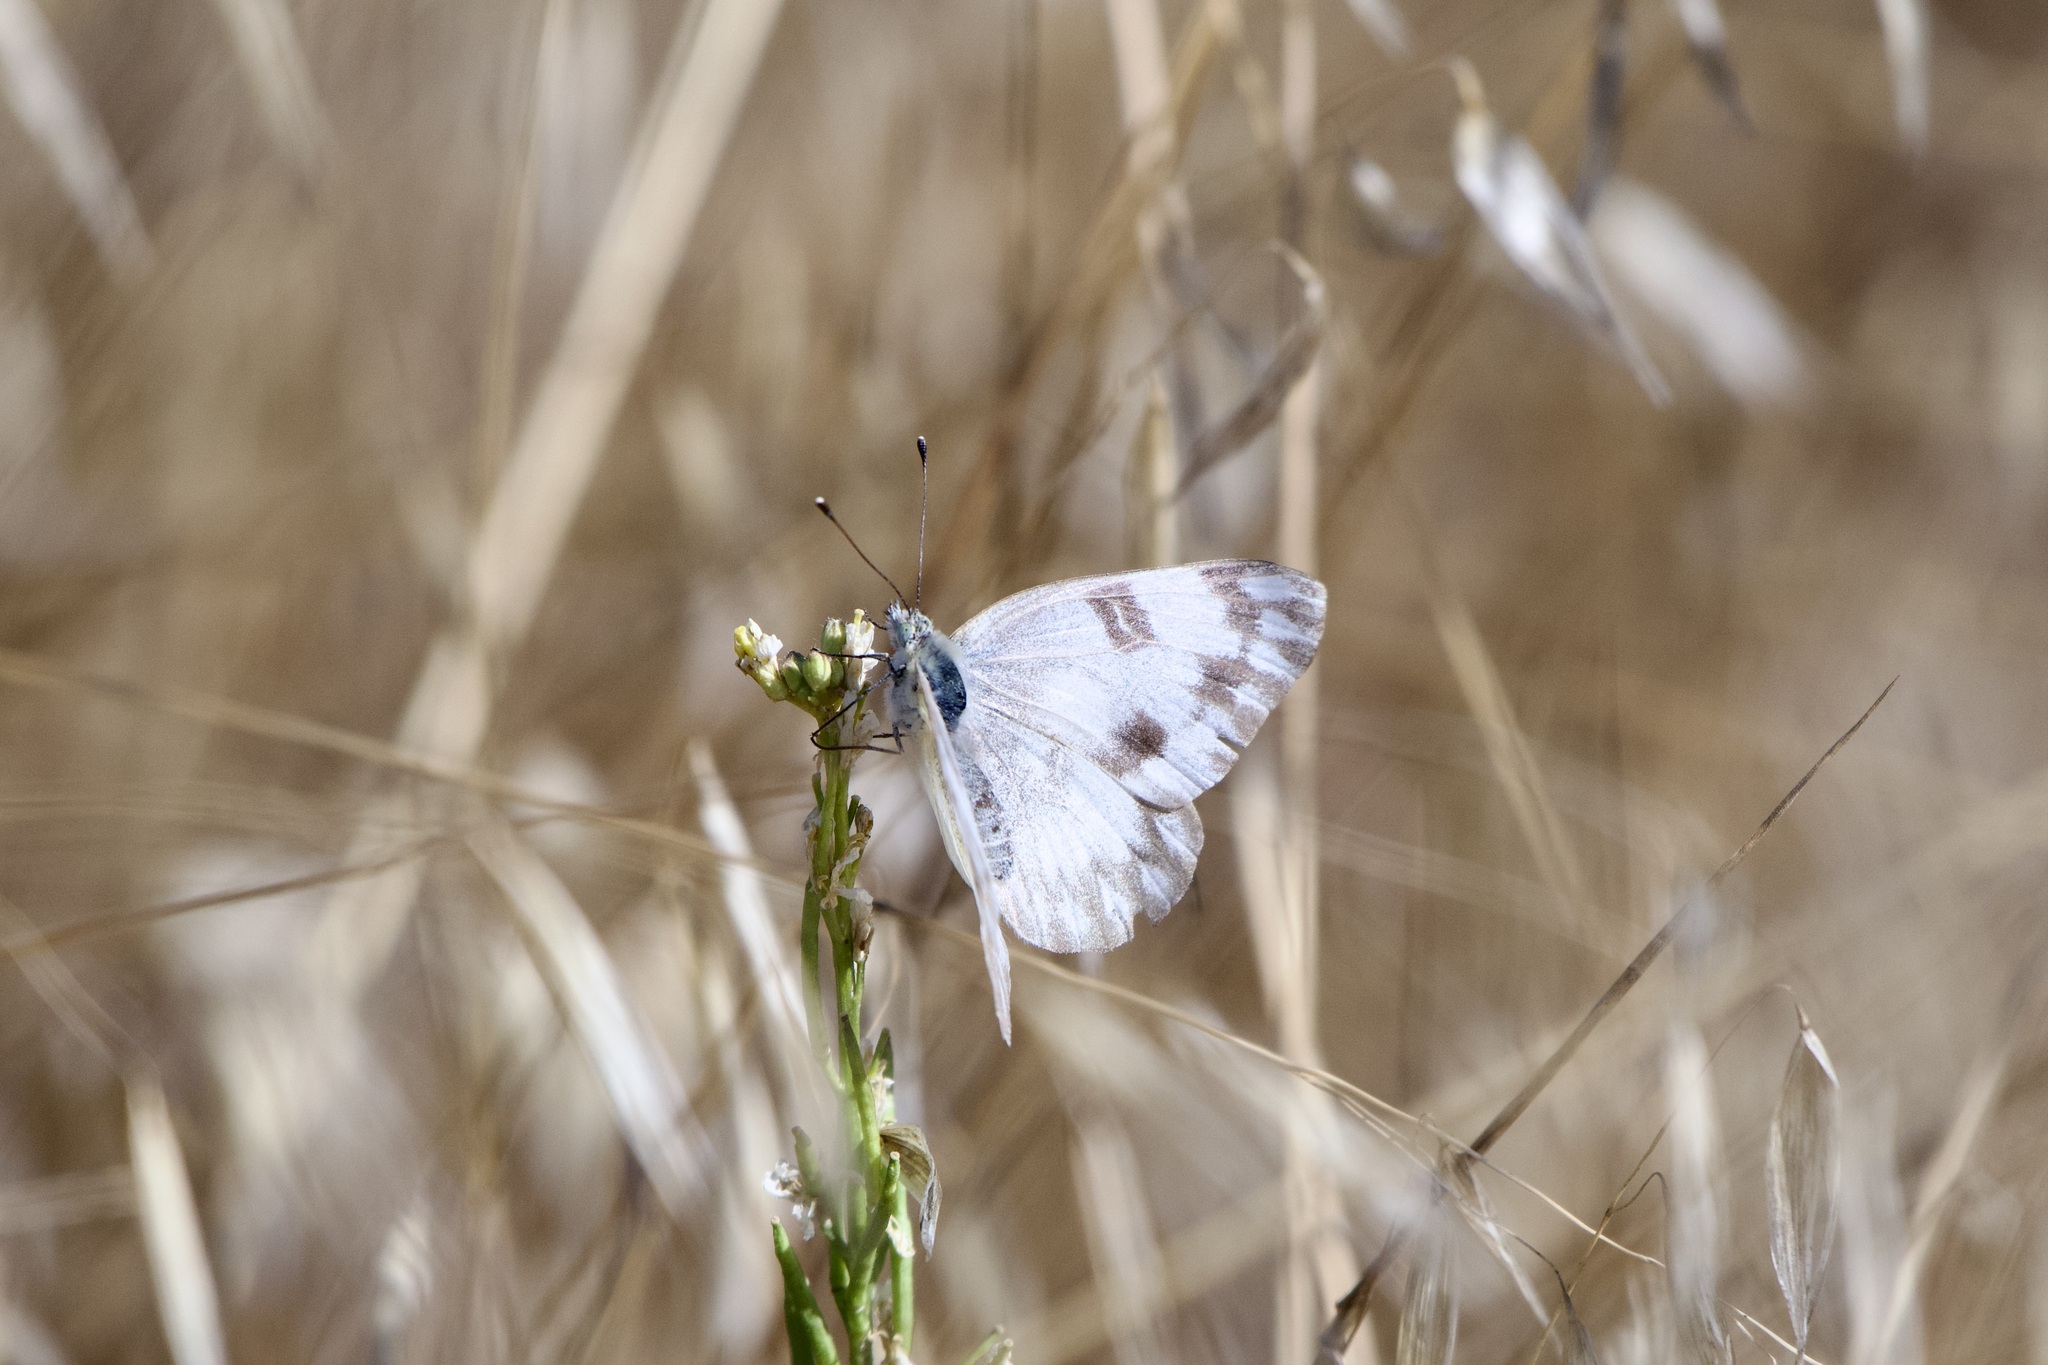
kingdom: Animalia
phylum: Arthropoda
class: Insecta
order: Lepidoptera
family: Pieridae
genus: Pontia
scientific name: Pontia protodice
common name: Checkered white
